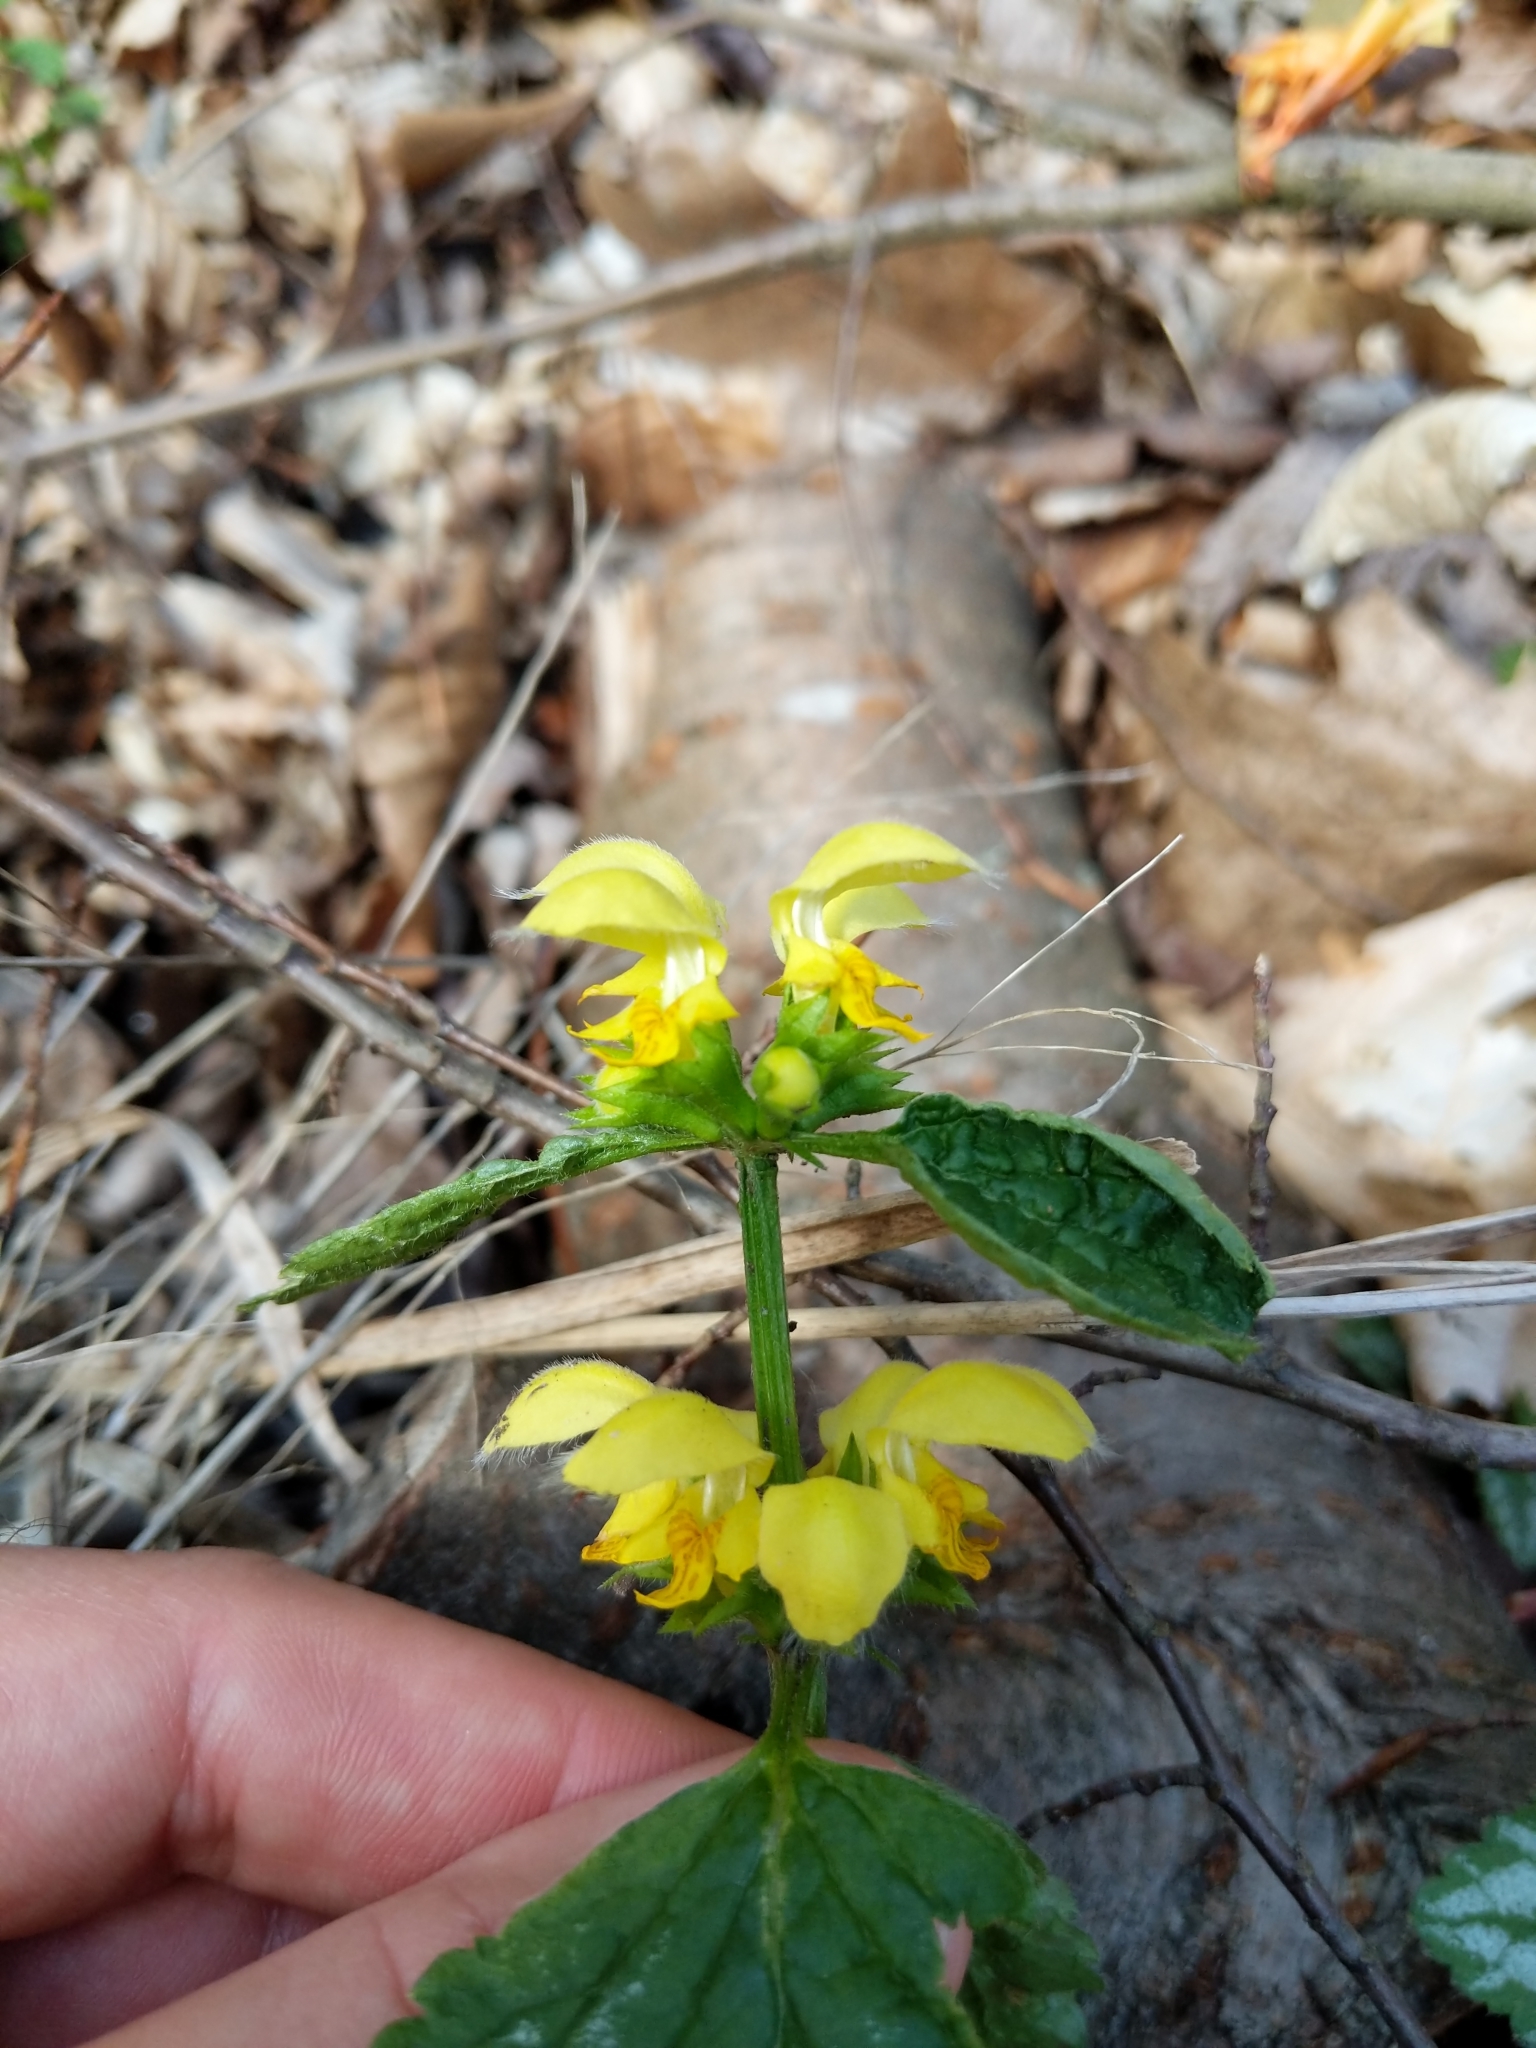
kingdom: Plantae
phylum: Tracheophyta
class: Magnoliopsida
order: Lamiales
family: Lamiaceae
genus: Lamium
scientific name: Lamium galeobdolon
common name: Yellow archangel
